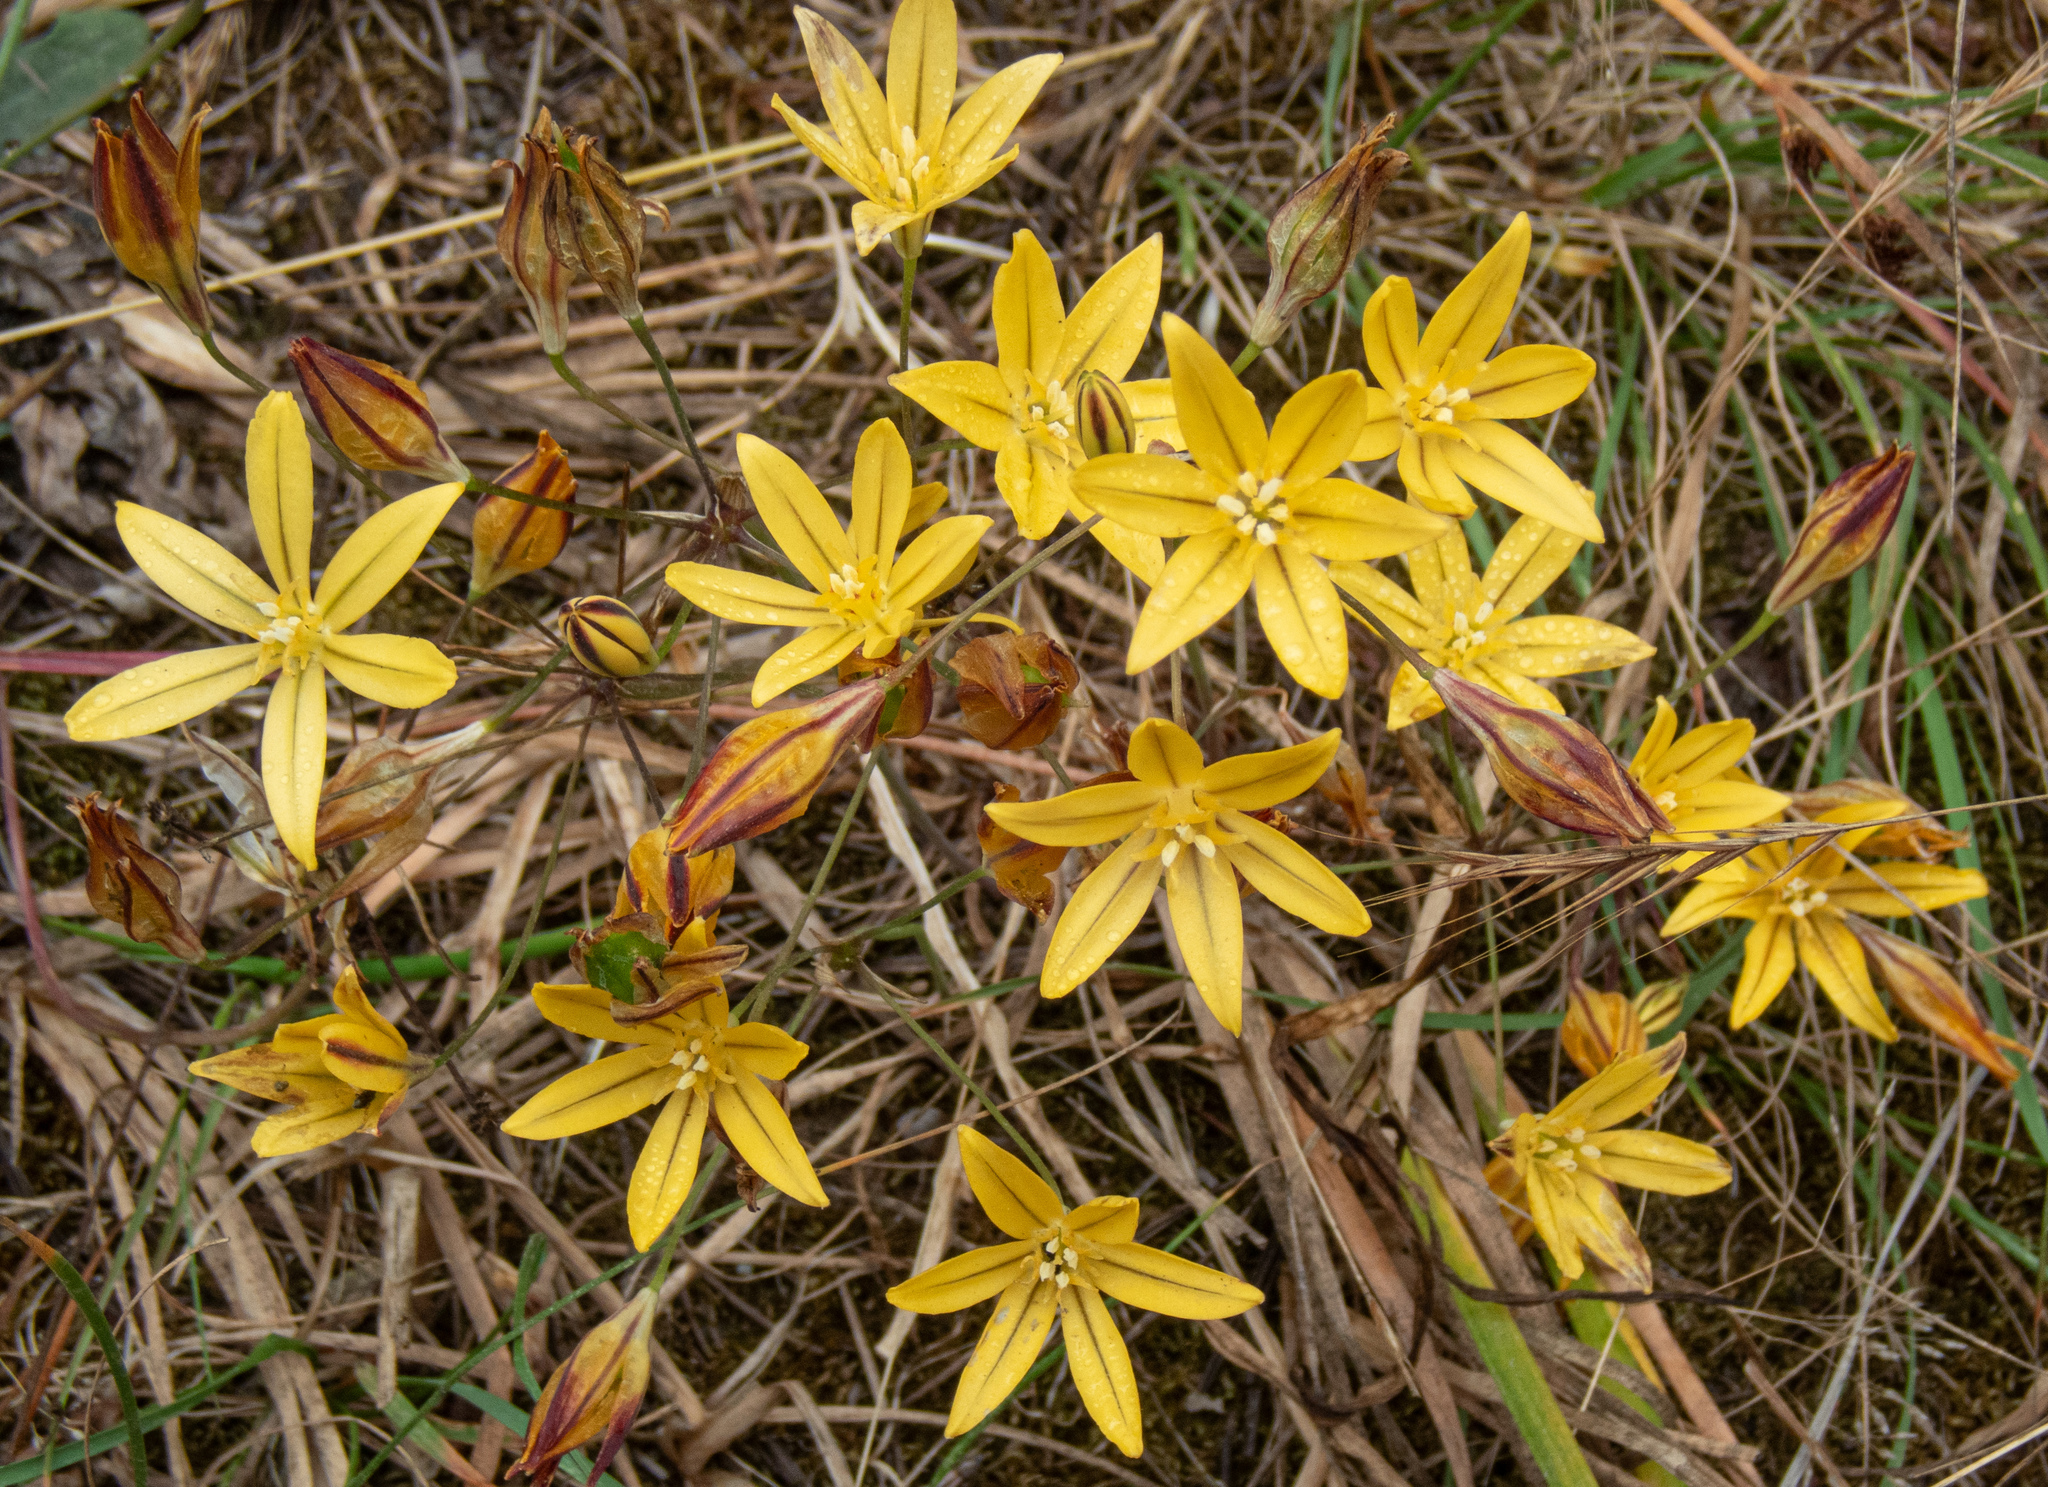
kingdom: Plantae
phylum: Tracheophyta
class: Liliopsida
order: Asparagales
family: Asparagaceae
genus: Triteleia
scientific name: Triteleia ixioides
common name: Yellow-brodiaea
